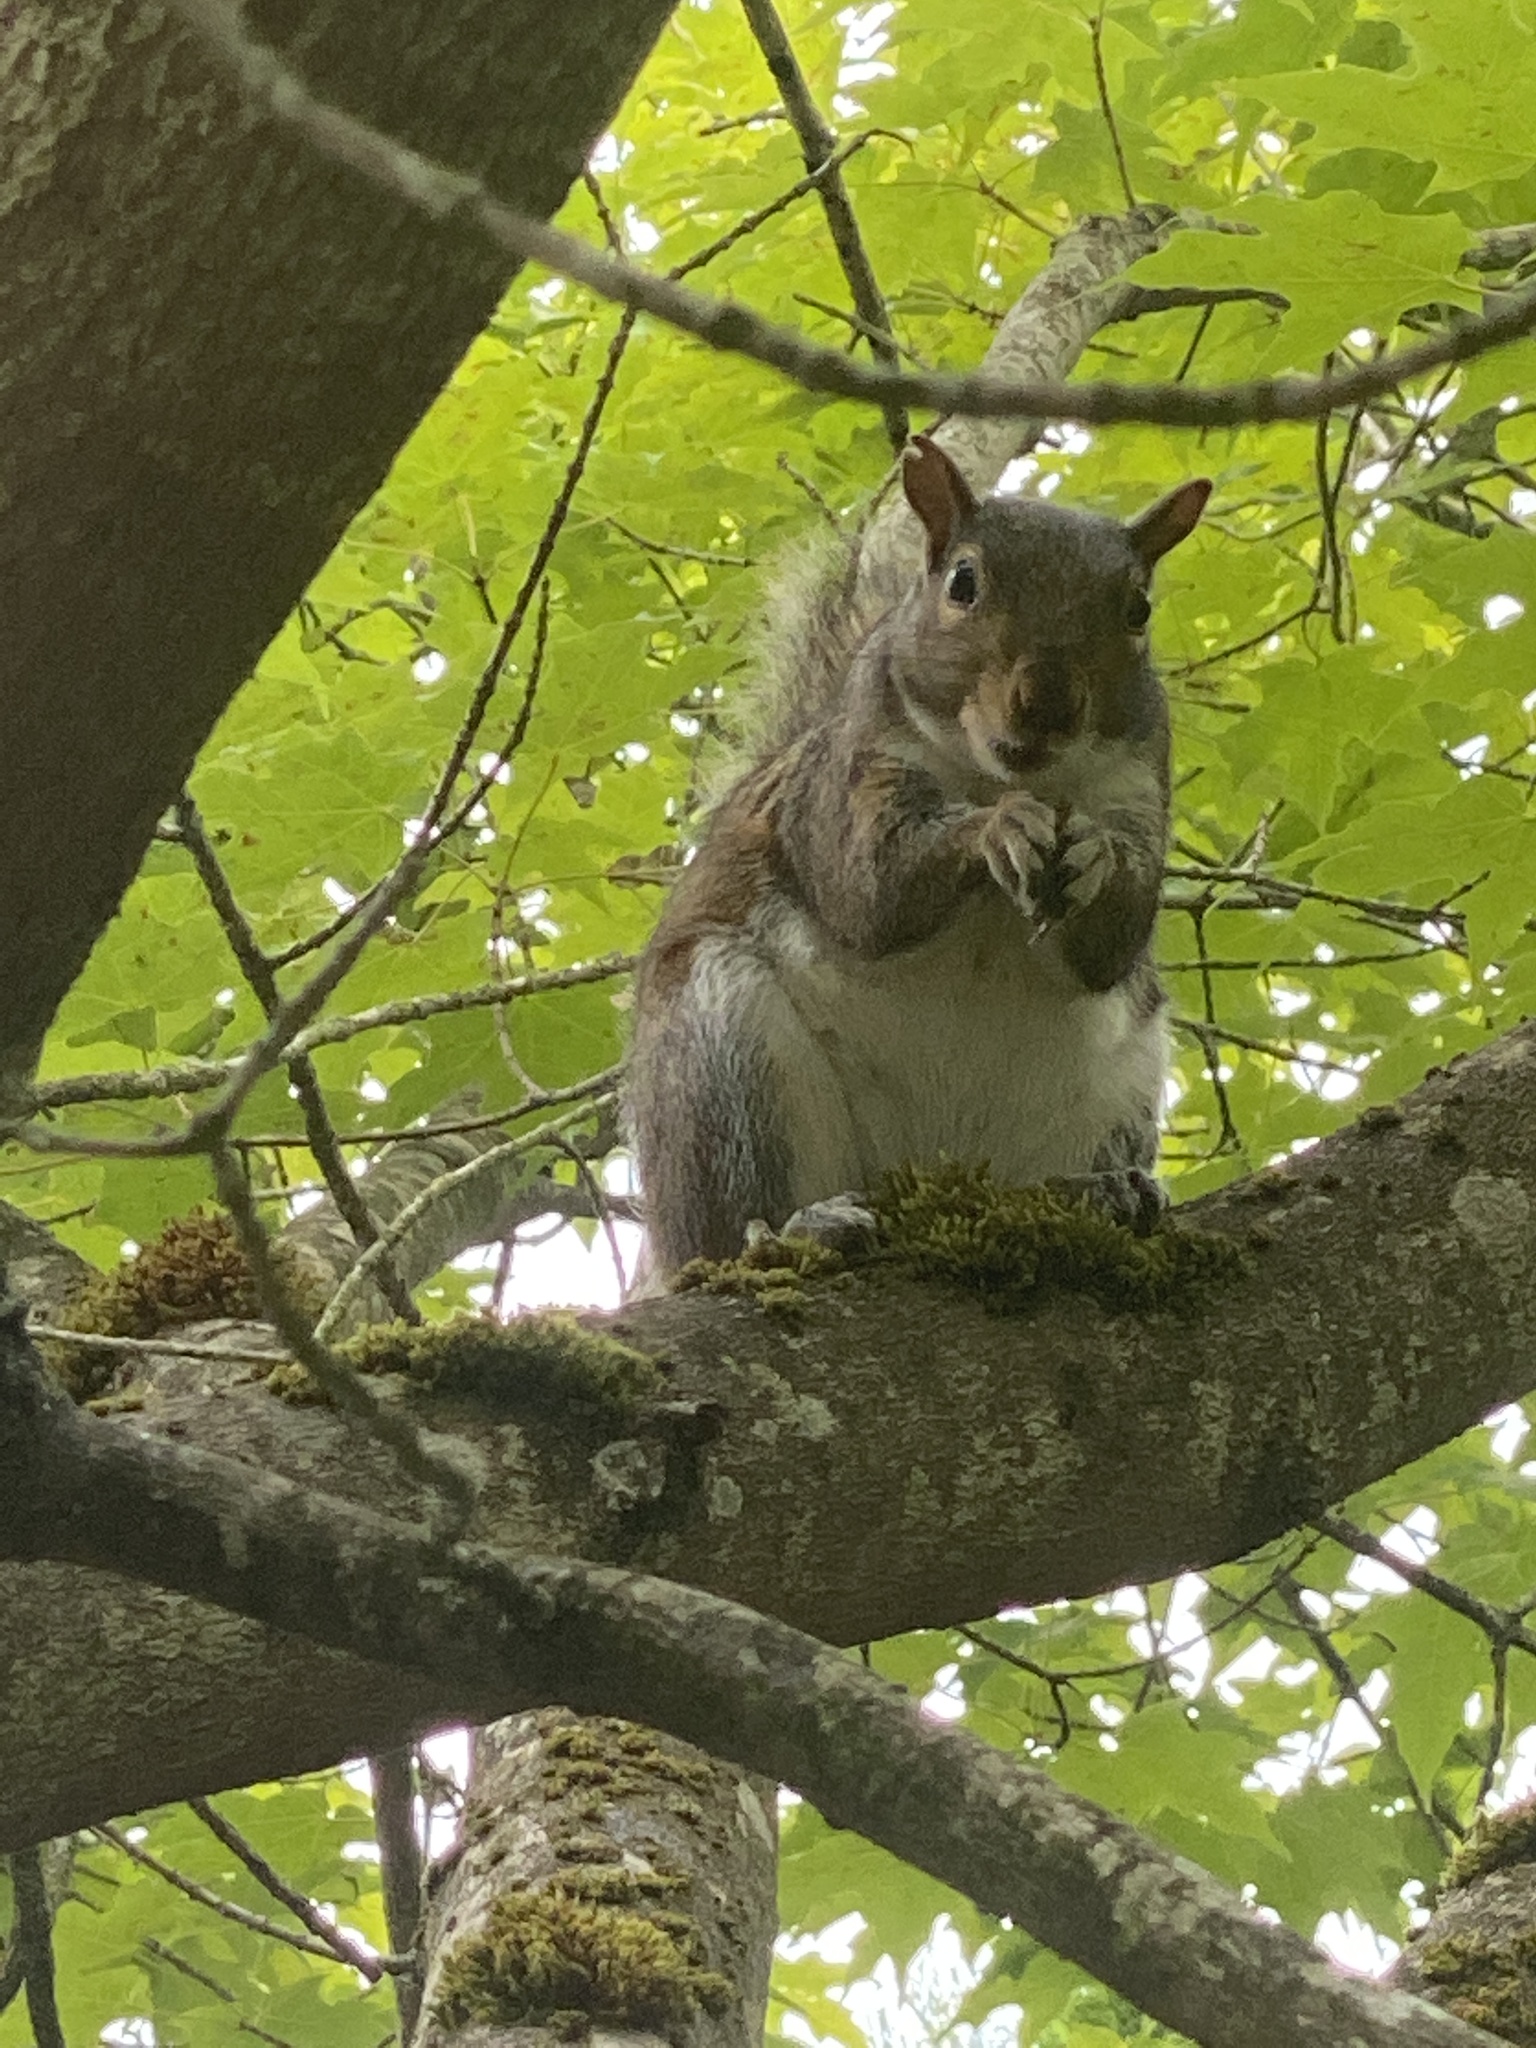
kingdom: Animalia
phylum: Chordata
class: Mammalia
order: Rodentia
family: Sciuridae
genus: Sciurus
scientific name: Sciurus carolinensis
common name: Eastern gray squirrel
